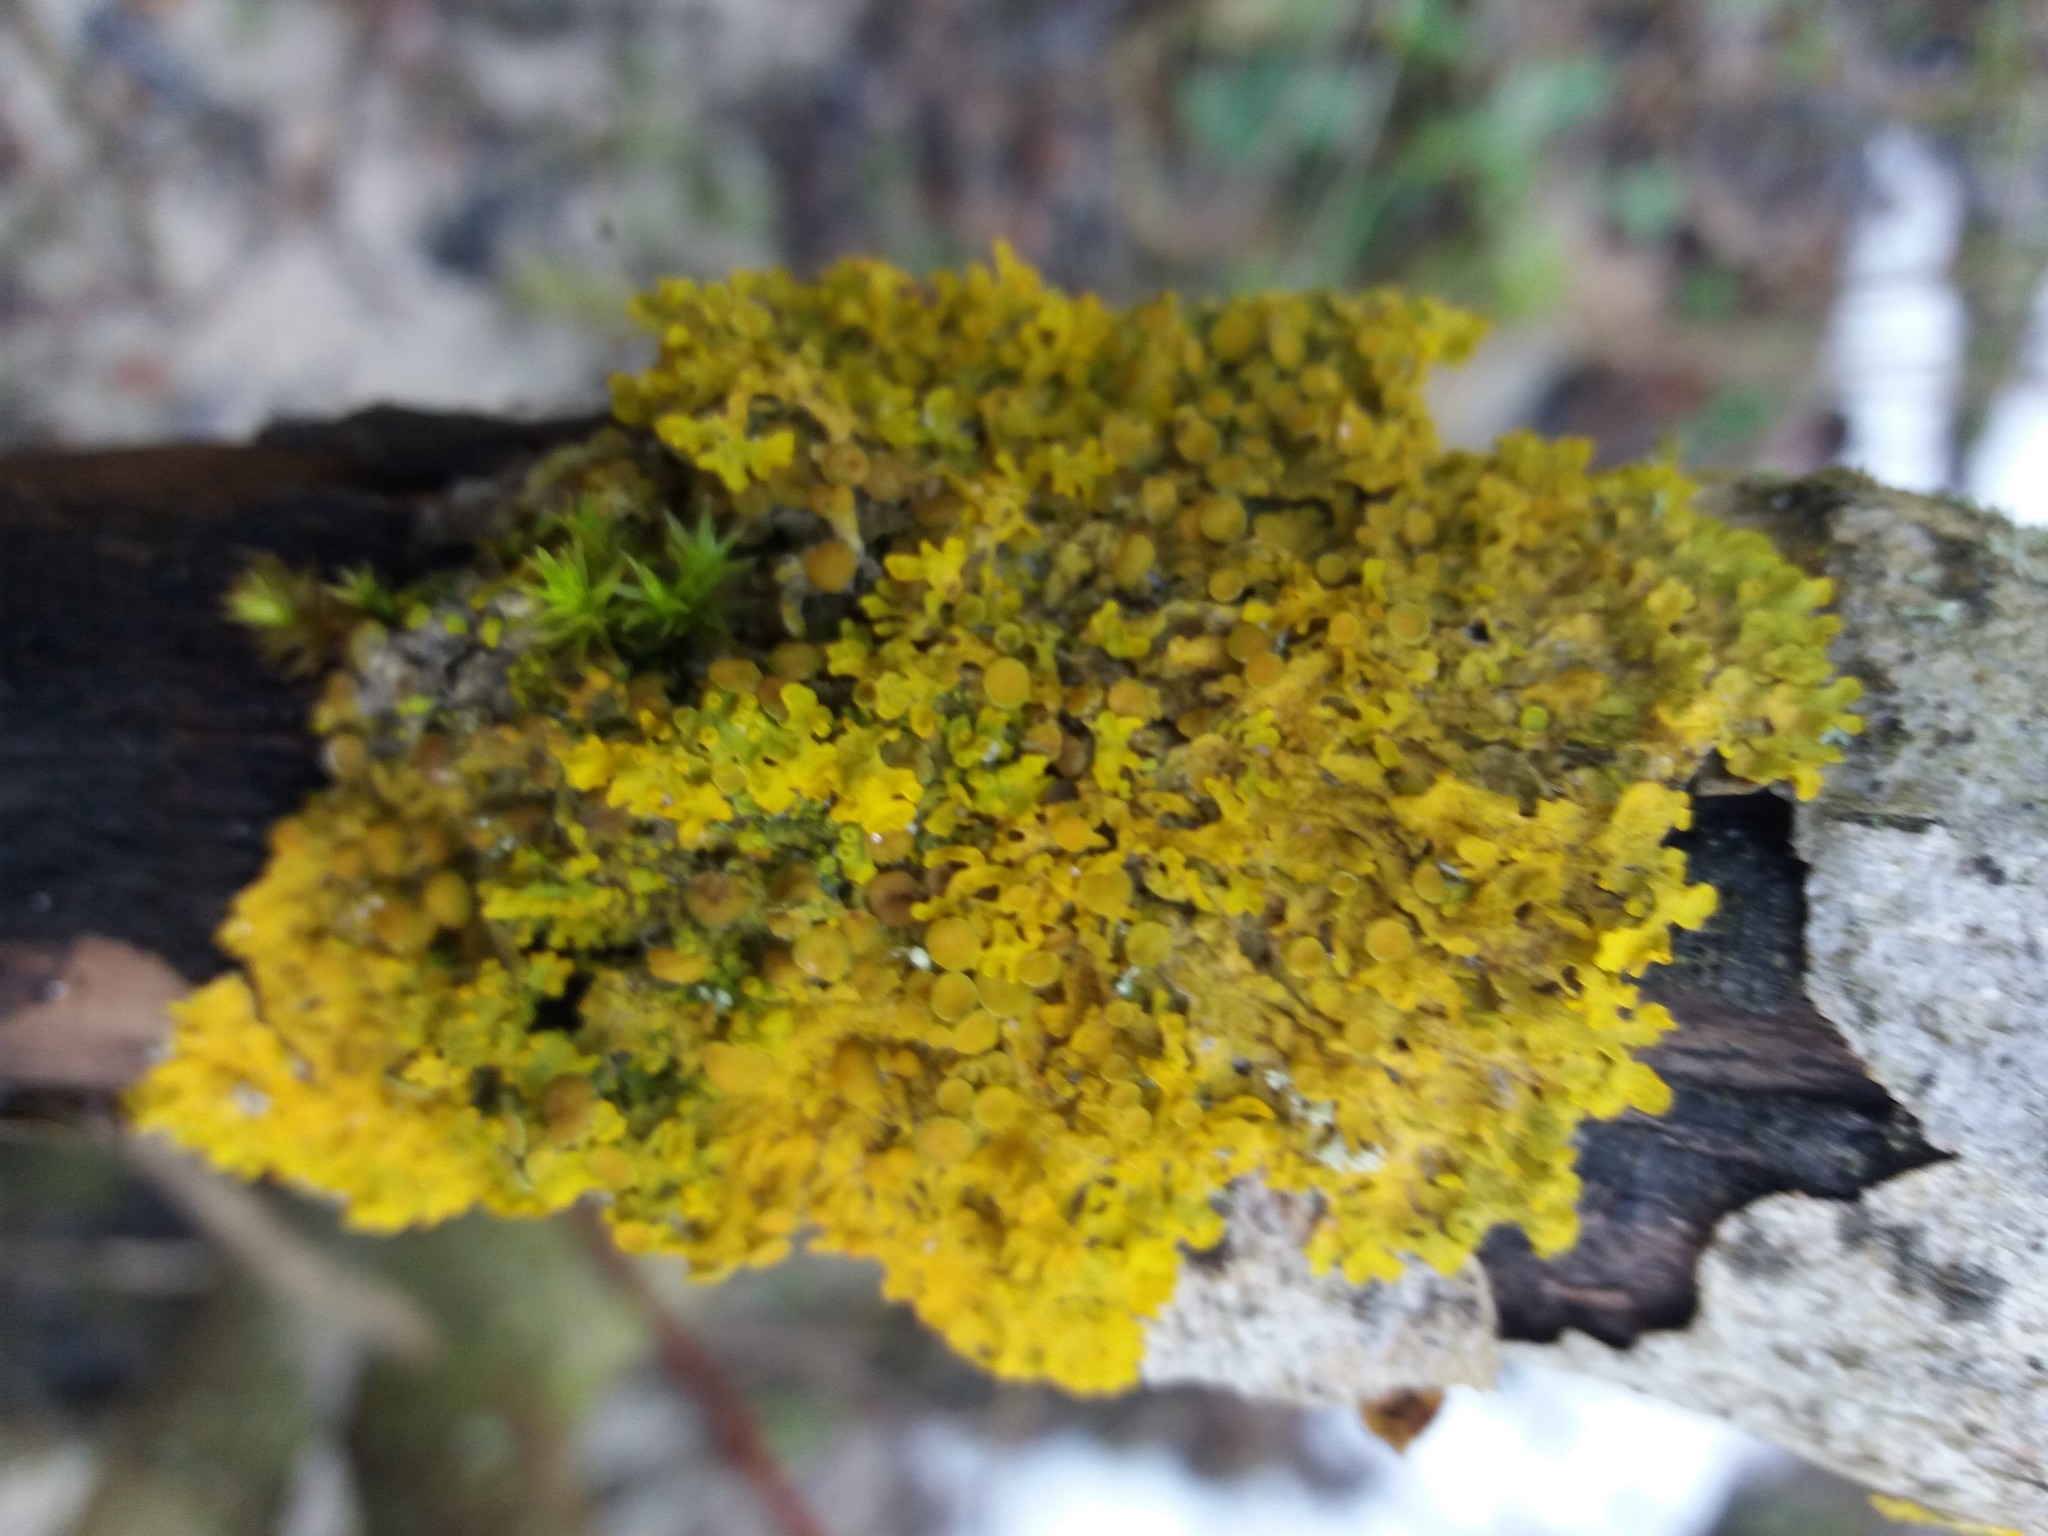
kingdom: Fungi
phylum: Ascomycota
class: Lecanoromycetes
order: Teloschistales
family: Teloschistaceae
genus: Xanthoria
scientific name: Xanthoria parietina
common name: Common orange lichen
